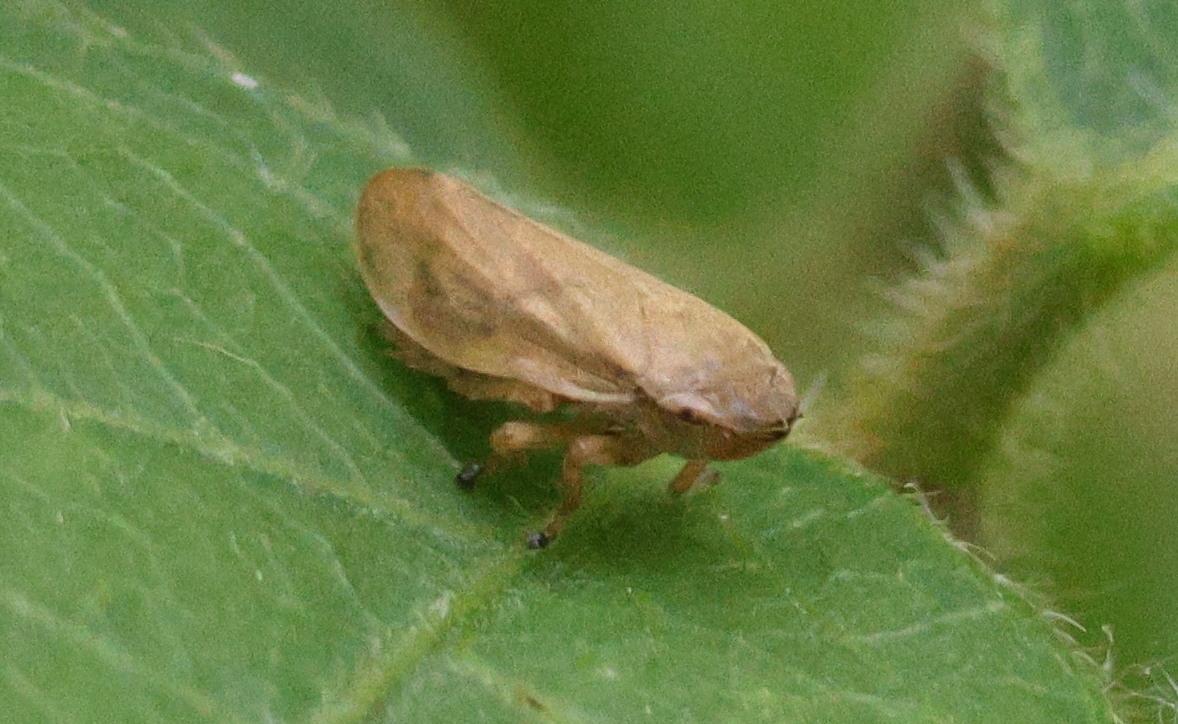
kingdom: Animalia
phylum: Arthropoda
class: Insecta
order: Hemiptera
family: Aphrophoridae
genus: Philaenus
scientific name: Philaenus spumarius
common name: Meadow spittlebug
